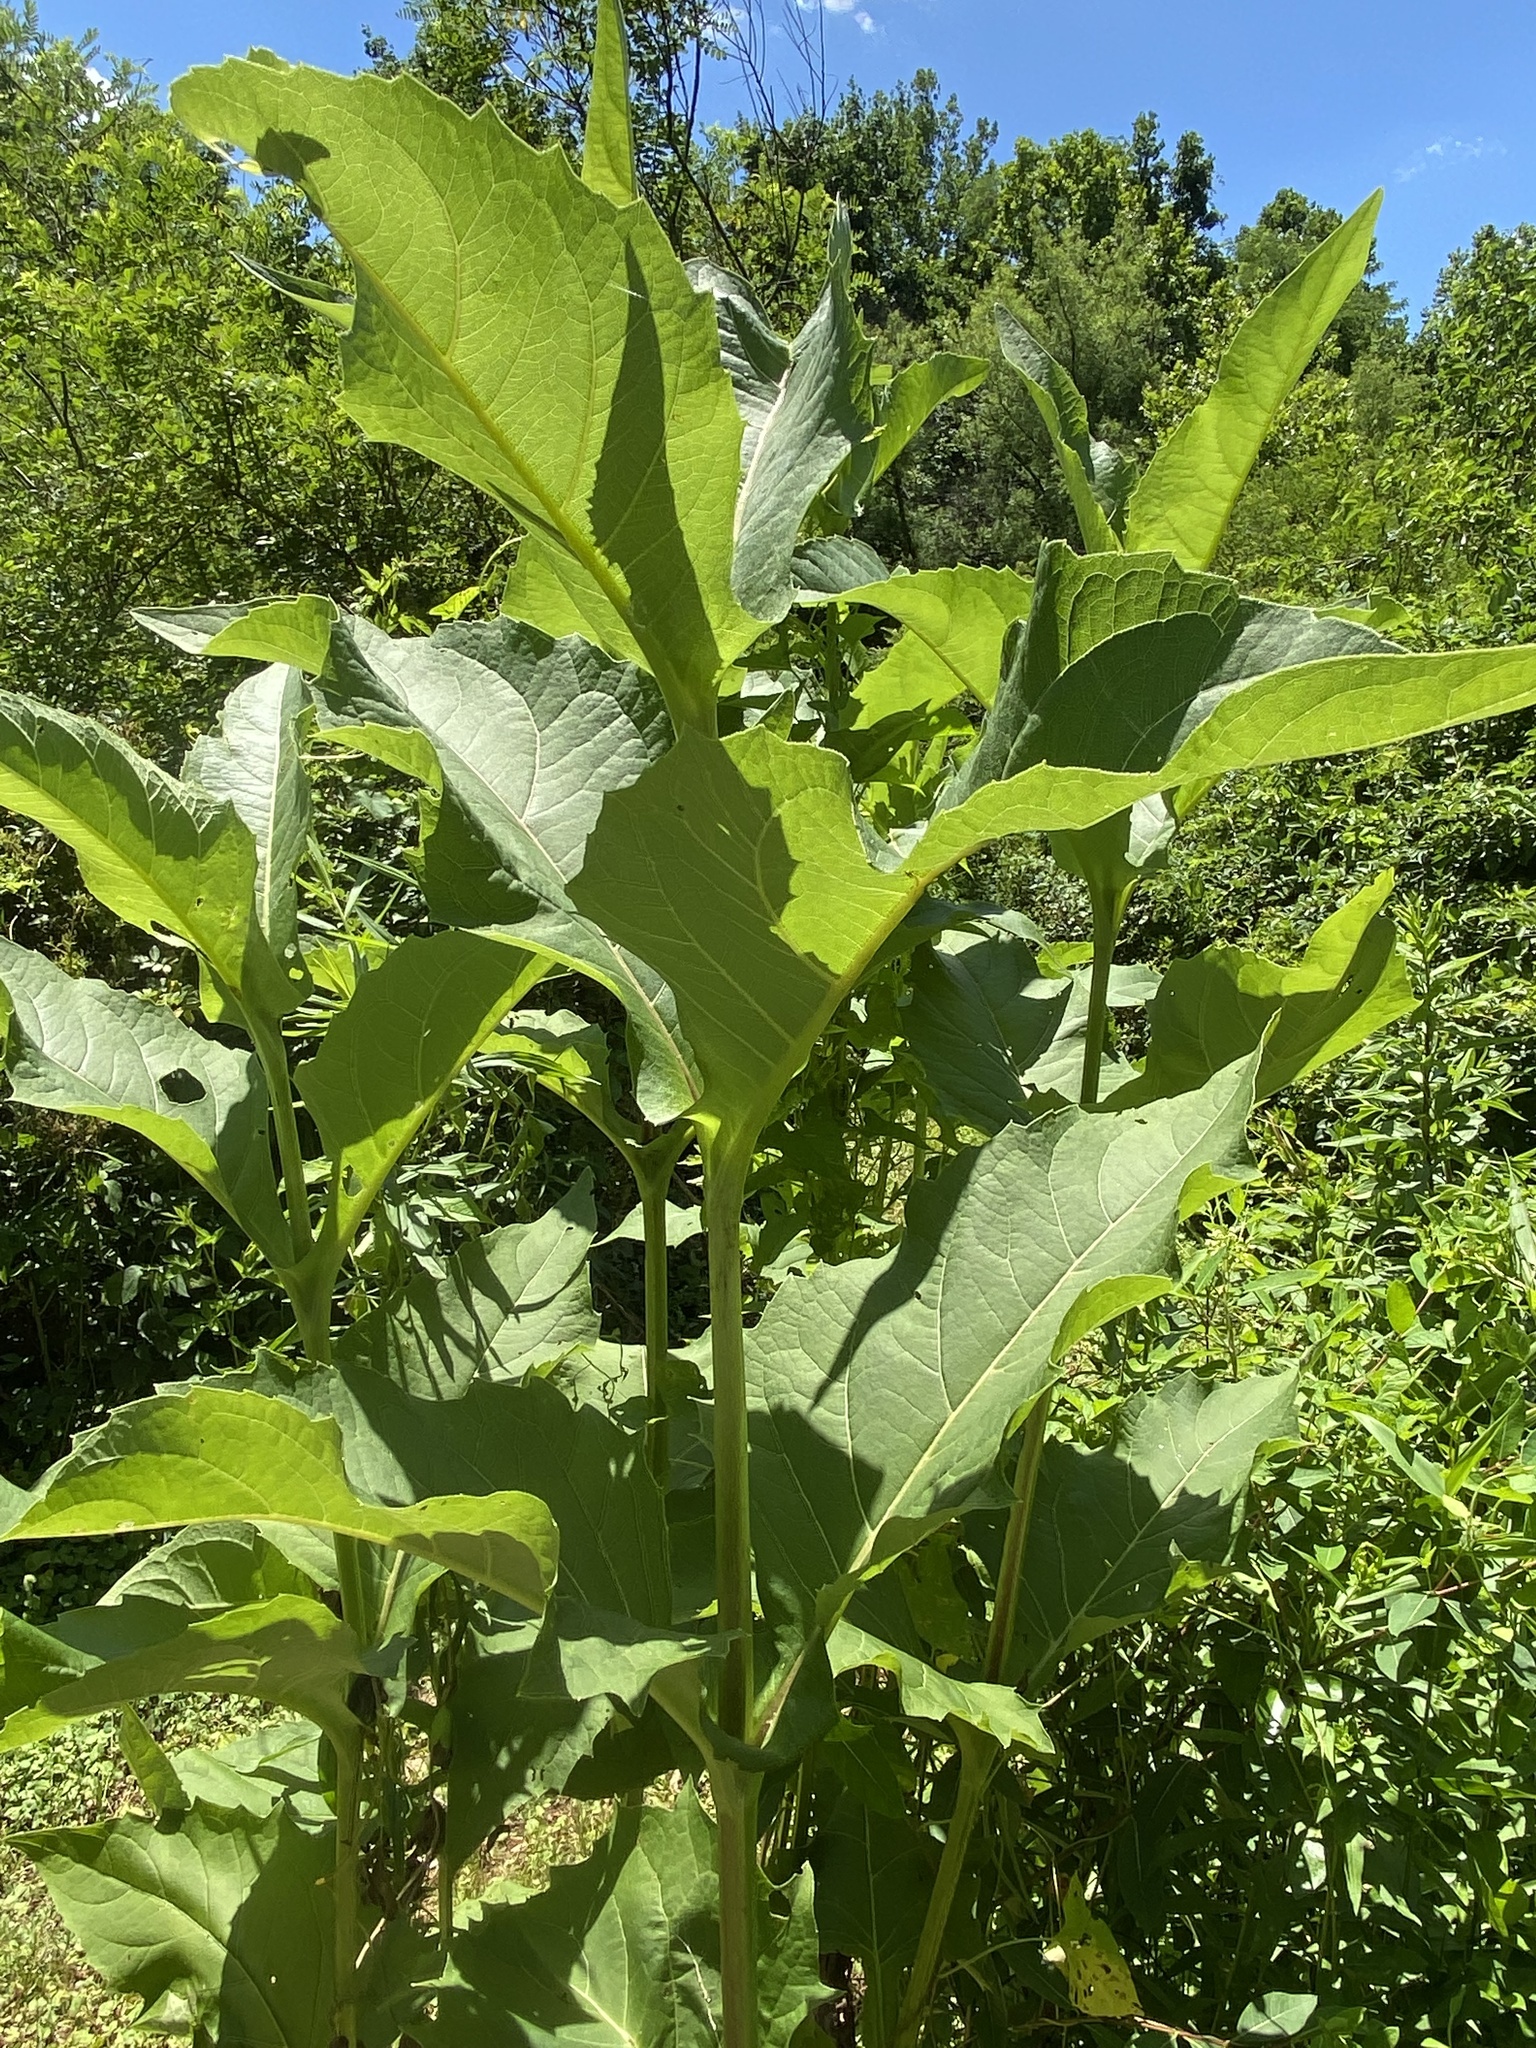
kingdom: Plantae
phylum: Tracheophyta
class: Magnoliopsida
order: Asterales
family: Asteraceae
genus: Silphium
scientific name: Silphium perfoliatum
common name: Cup-plant
